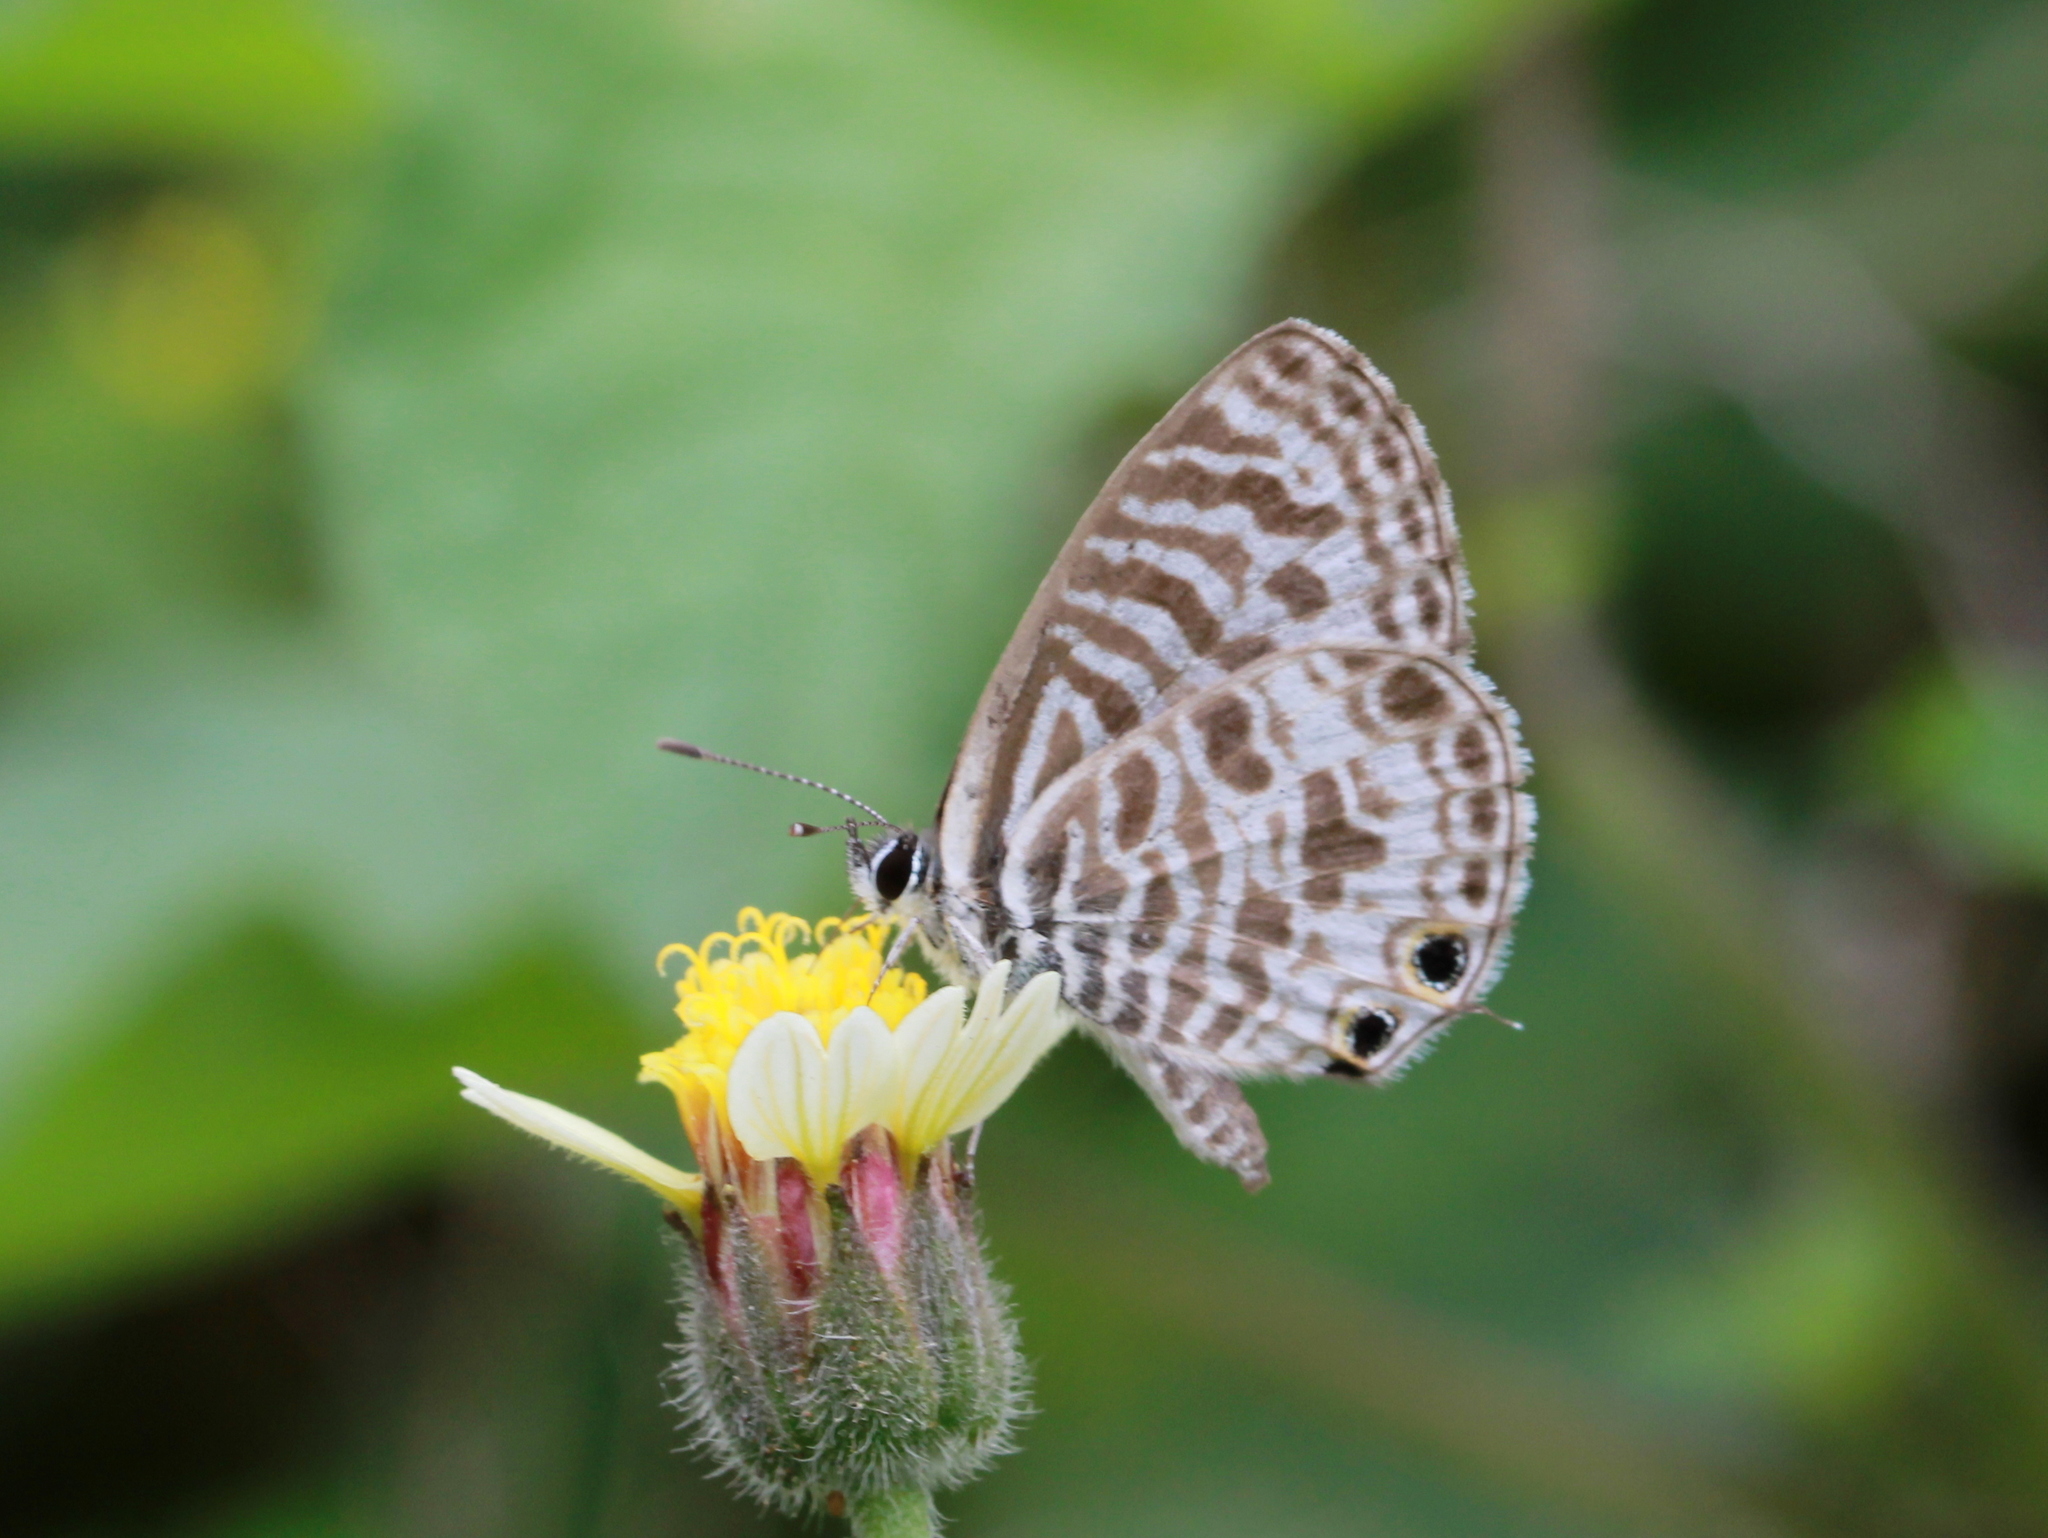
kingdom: Animalia
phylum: Arthropoda
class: Insecta
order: Lepidoptera
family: Lycaenidae
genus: Leptotes
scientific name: Leptotes plinius
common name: Zebra blue
